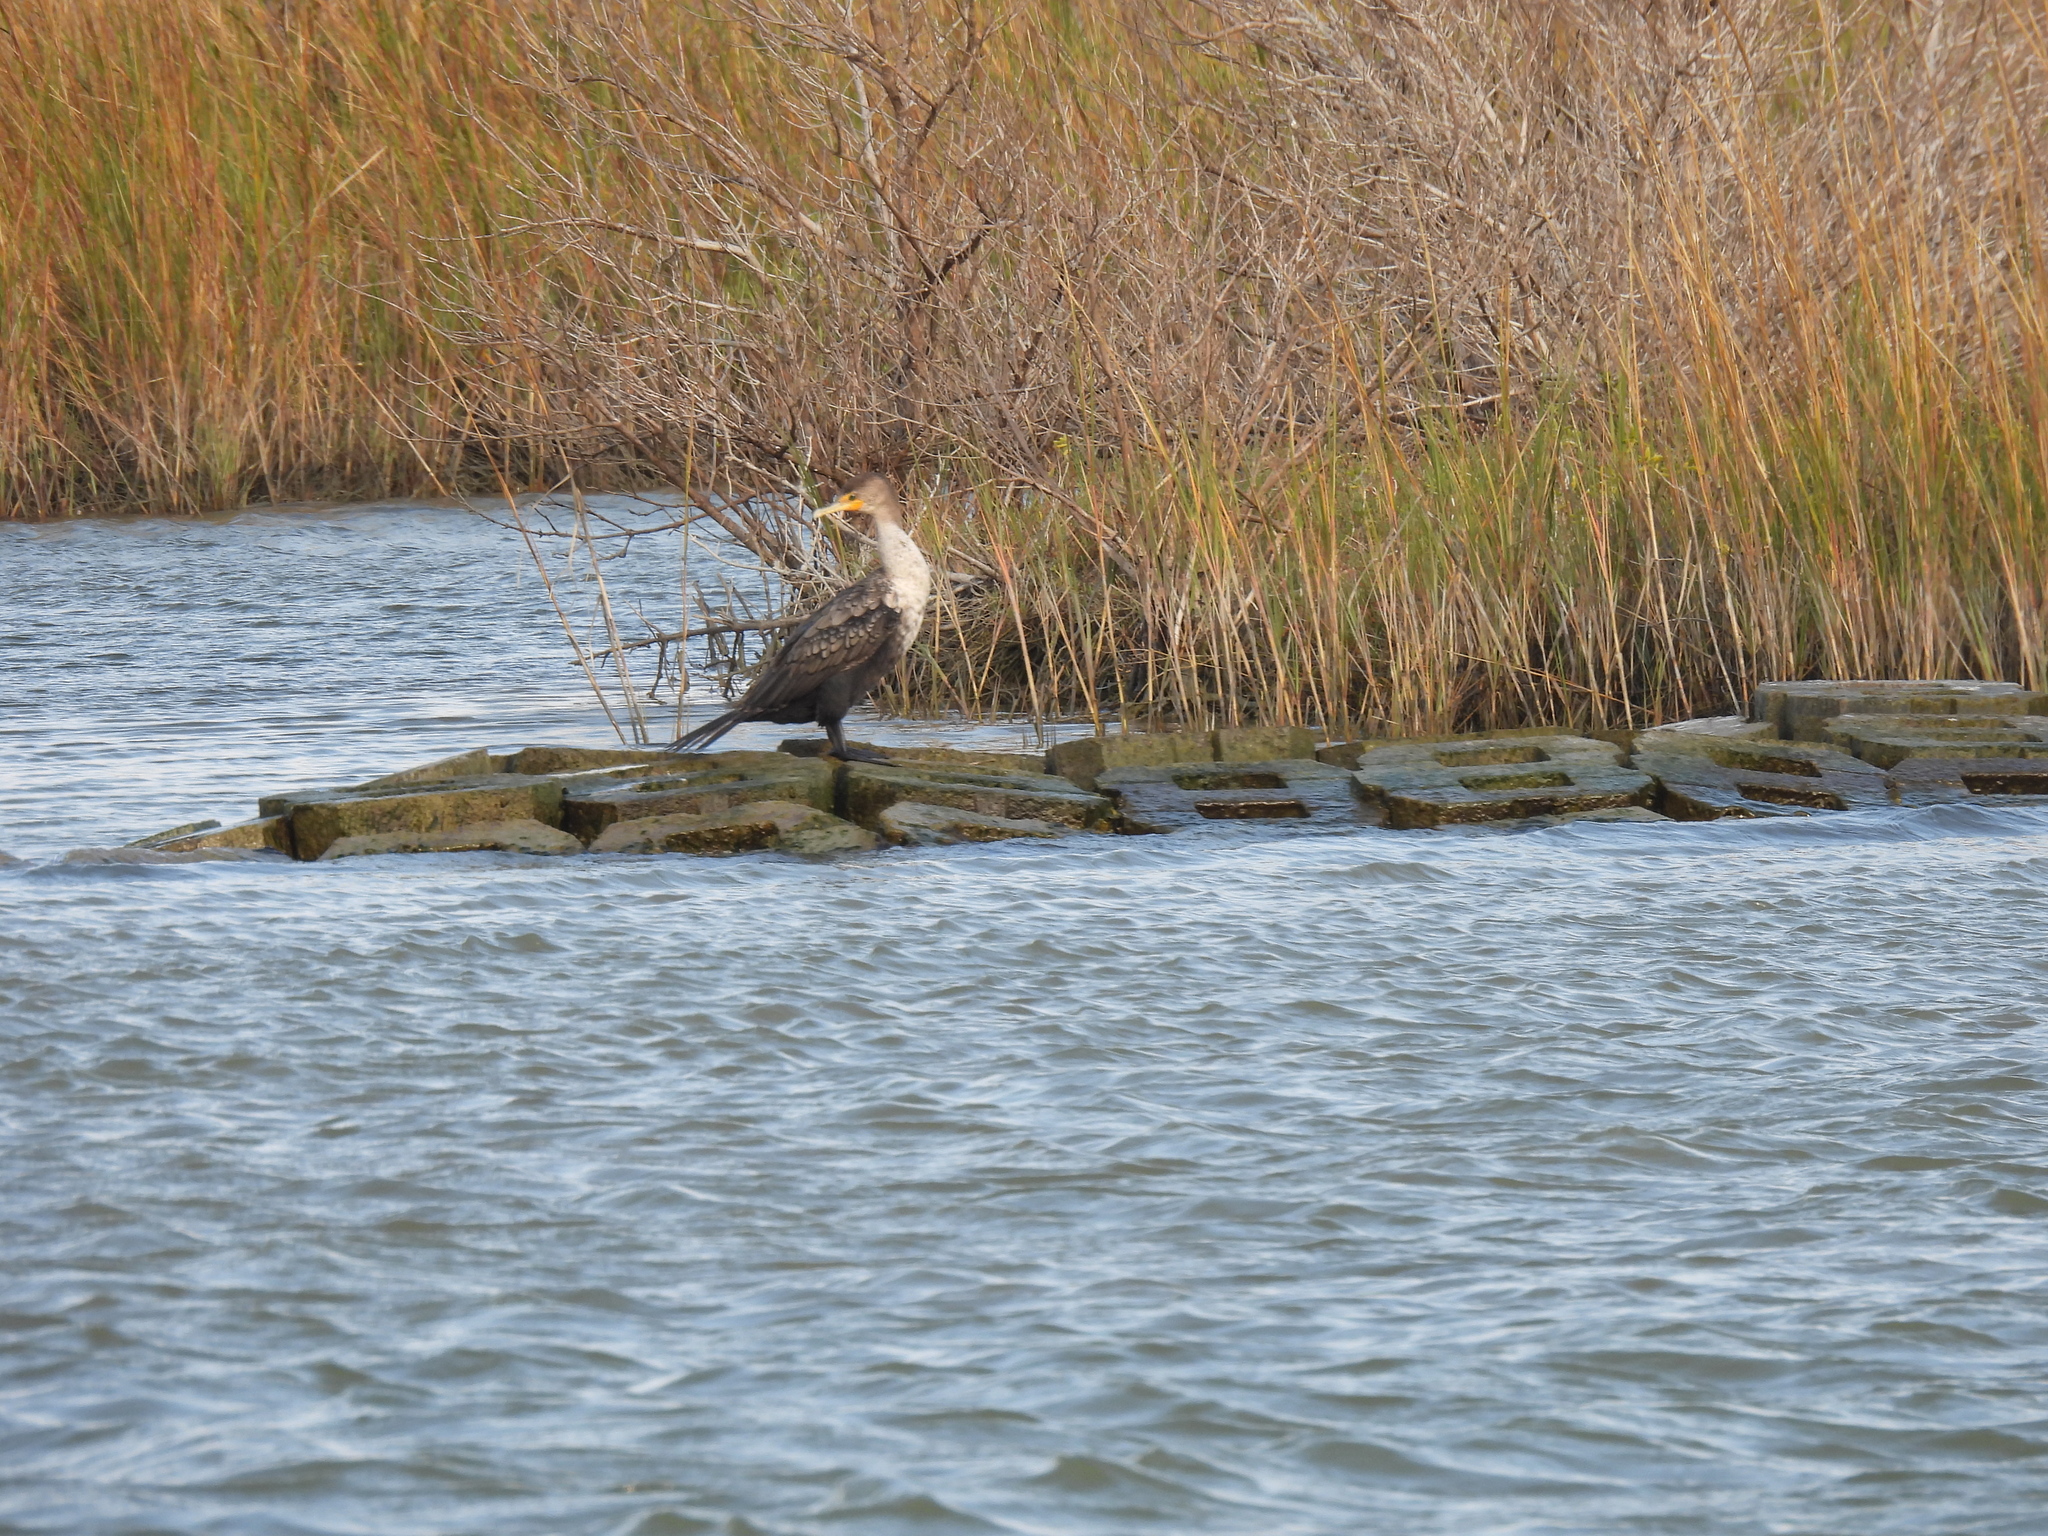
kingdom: Animalia
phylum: Chordata
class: Aves
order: Suliformes
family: Phalacrocoracidae
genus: Phalacrocorax
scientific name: Phalacrocorax auritus
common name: Double-crested cormorant
